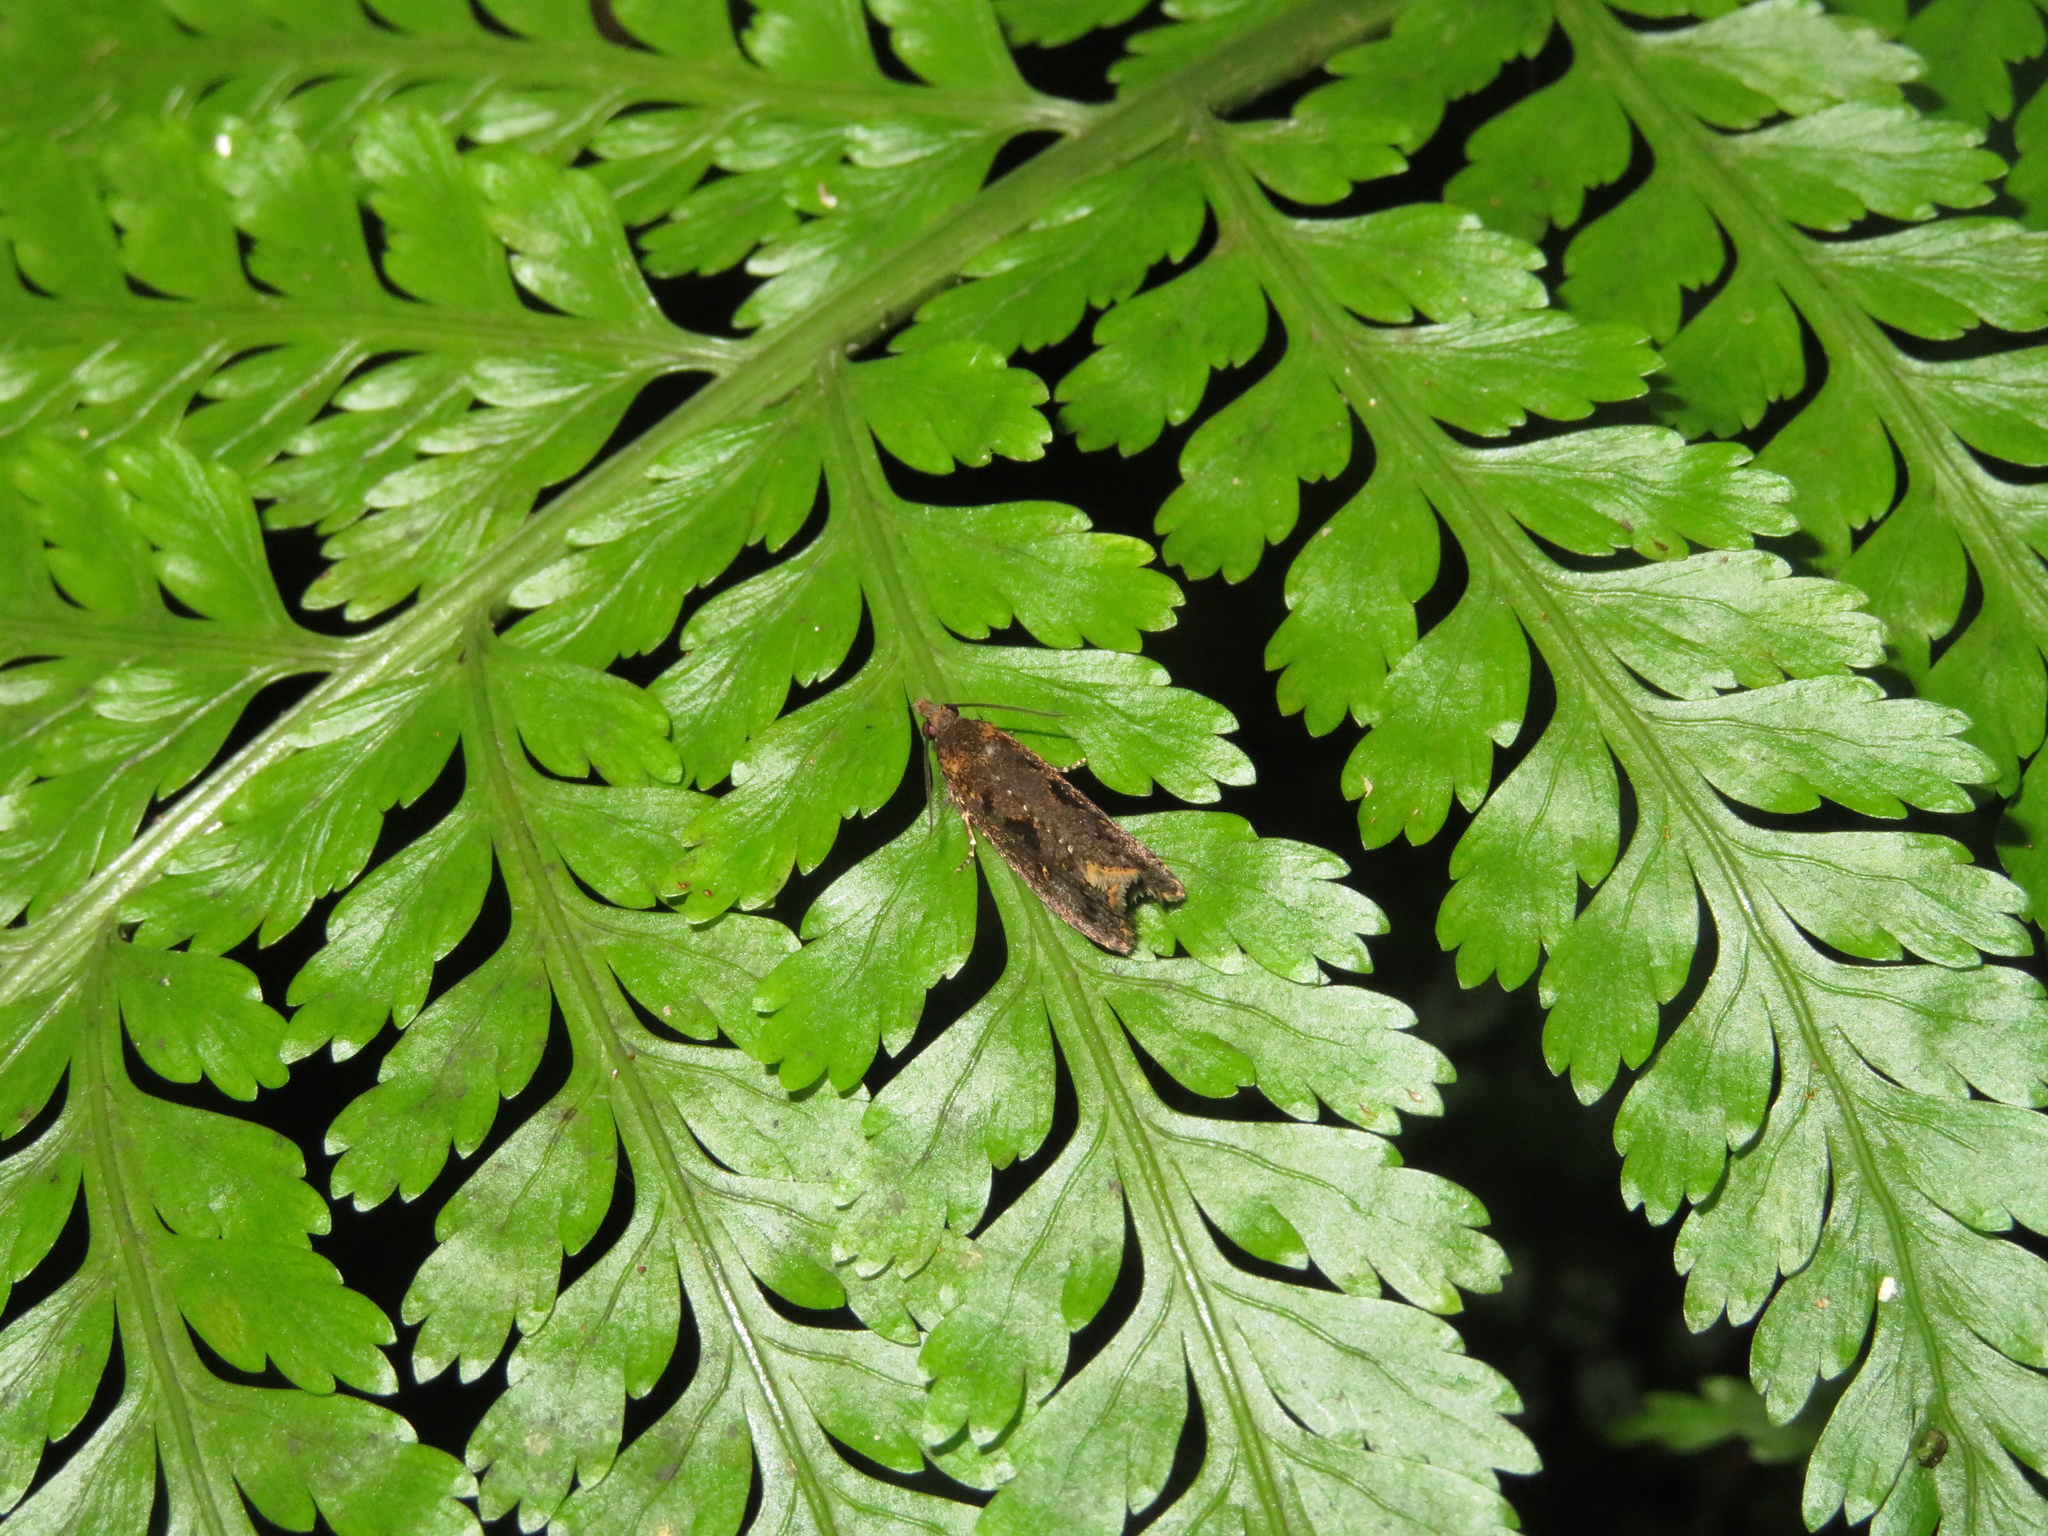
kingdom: Animalia
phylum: Arthropoda
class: Insecta
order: Lepidoptera
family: Tortricidae
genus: Cryptaspasma
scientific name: Cryptaspasma querula
